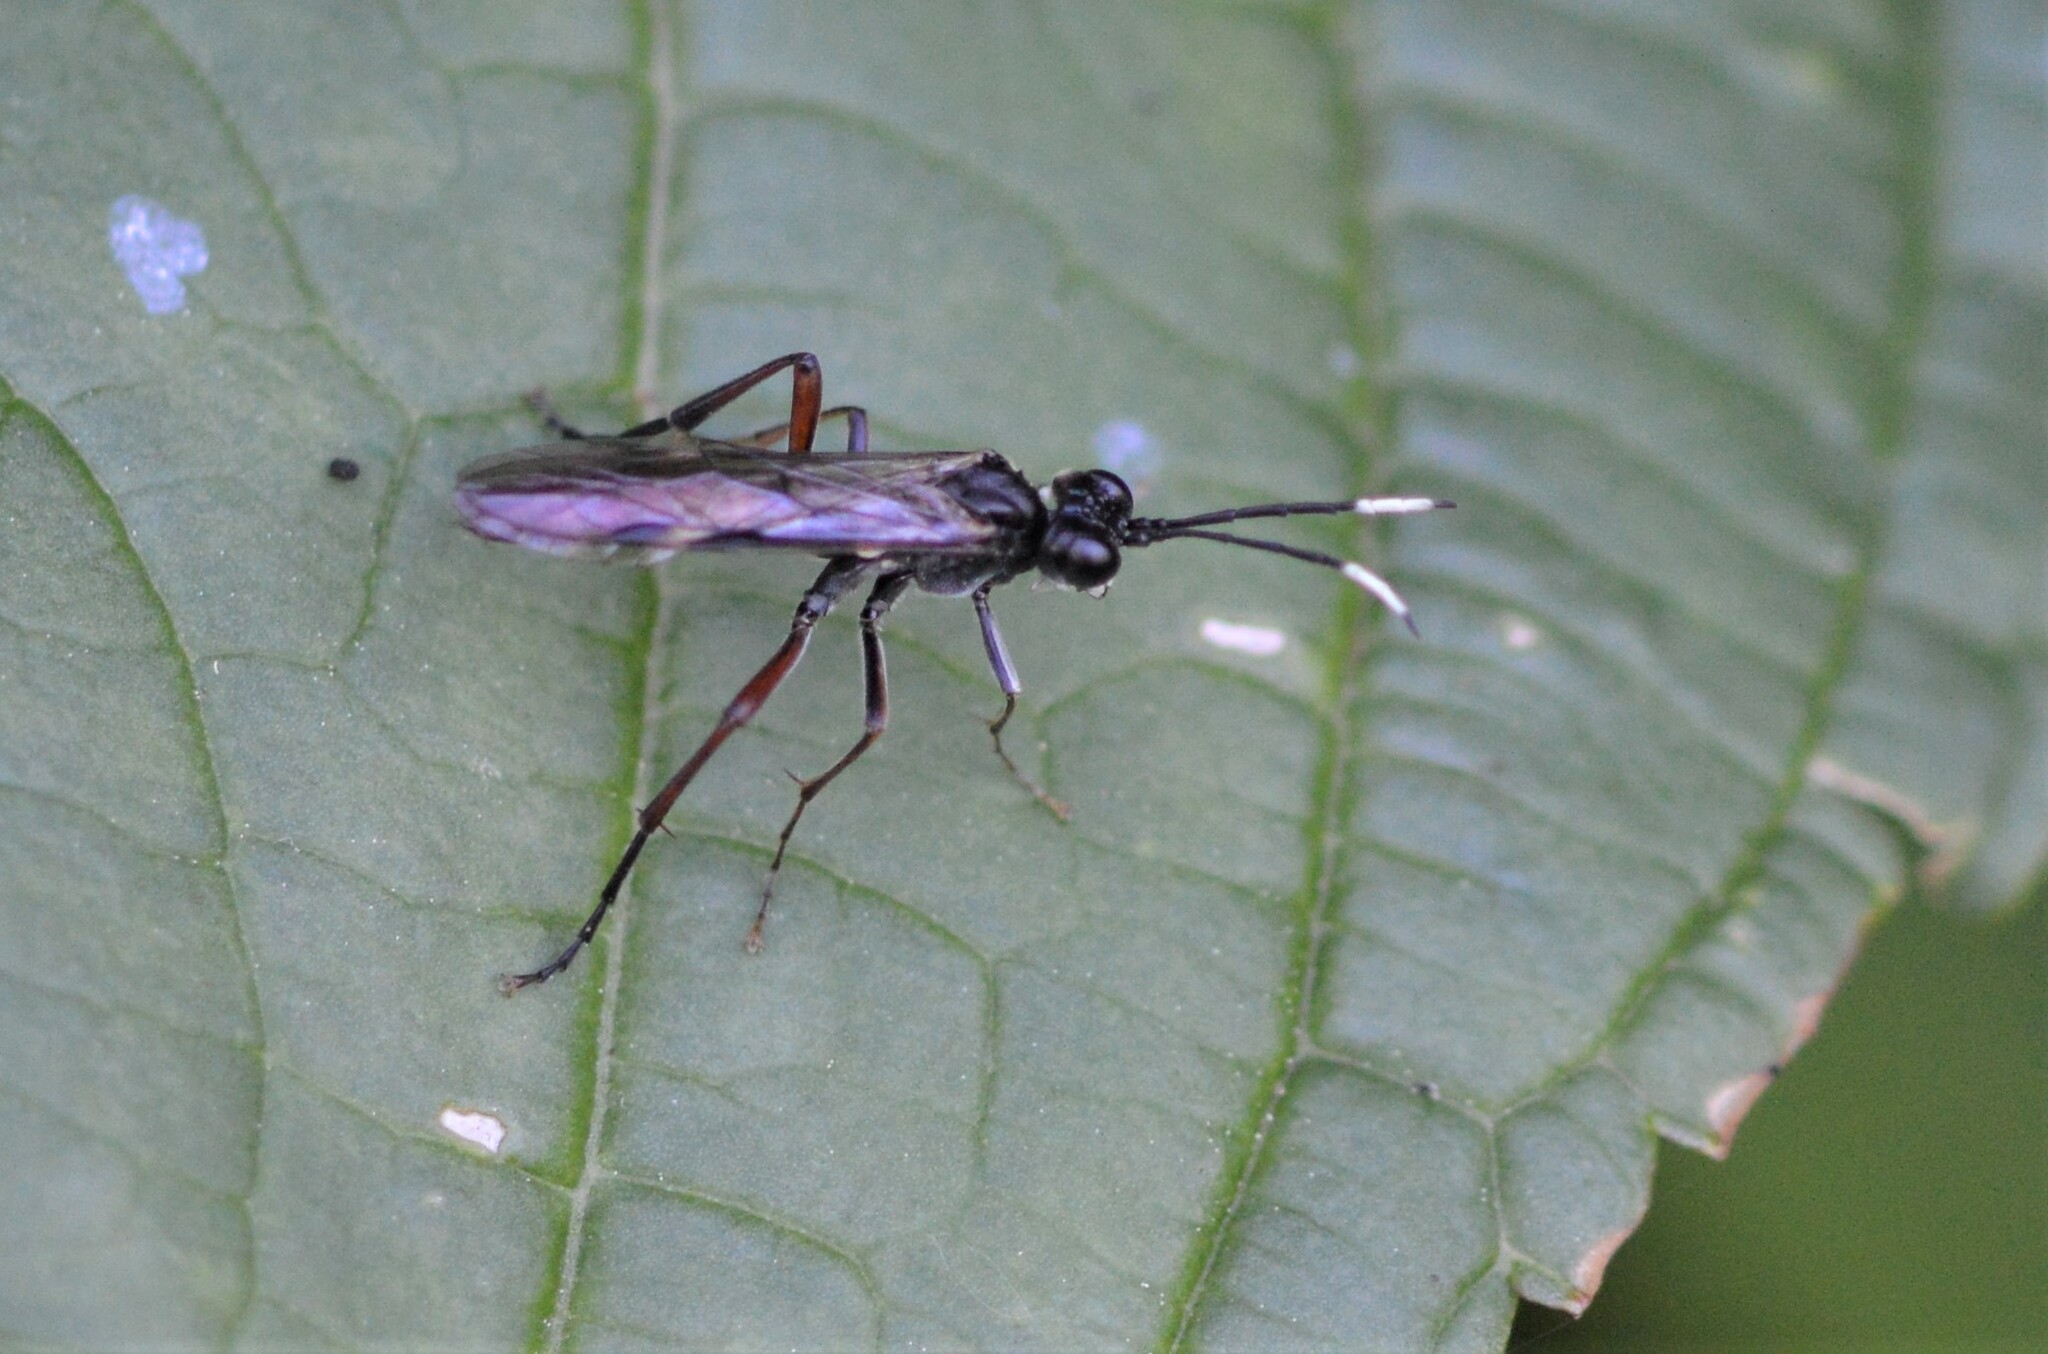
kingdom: Animalia
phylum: Arthropoda
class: Insecta
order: Hymenoptera
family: Tenthredinidae
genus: Tenthredo
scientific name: Tenthredo livida
